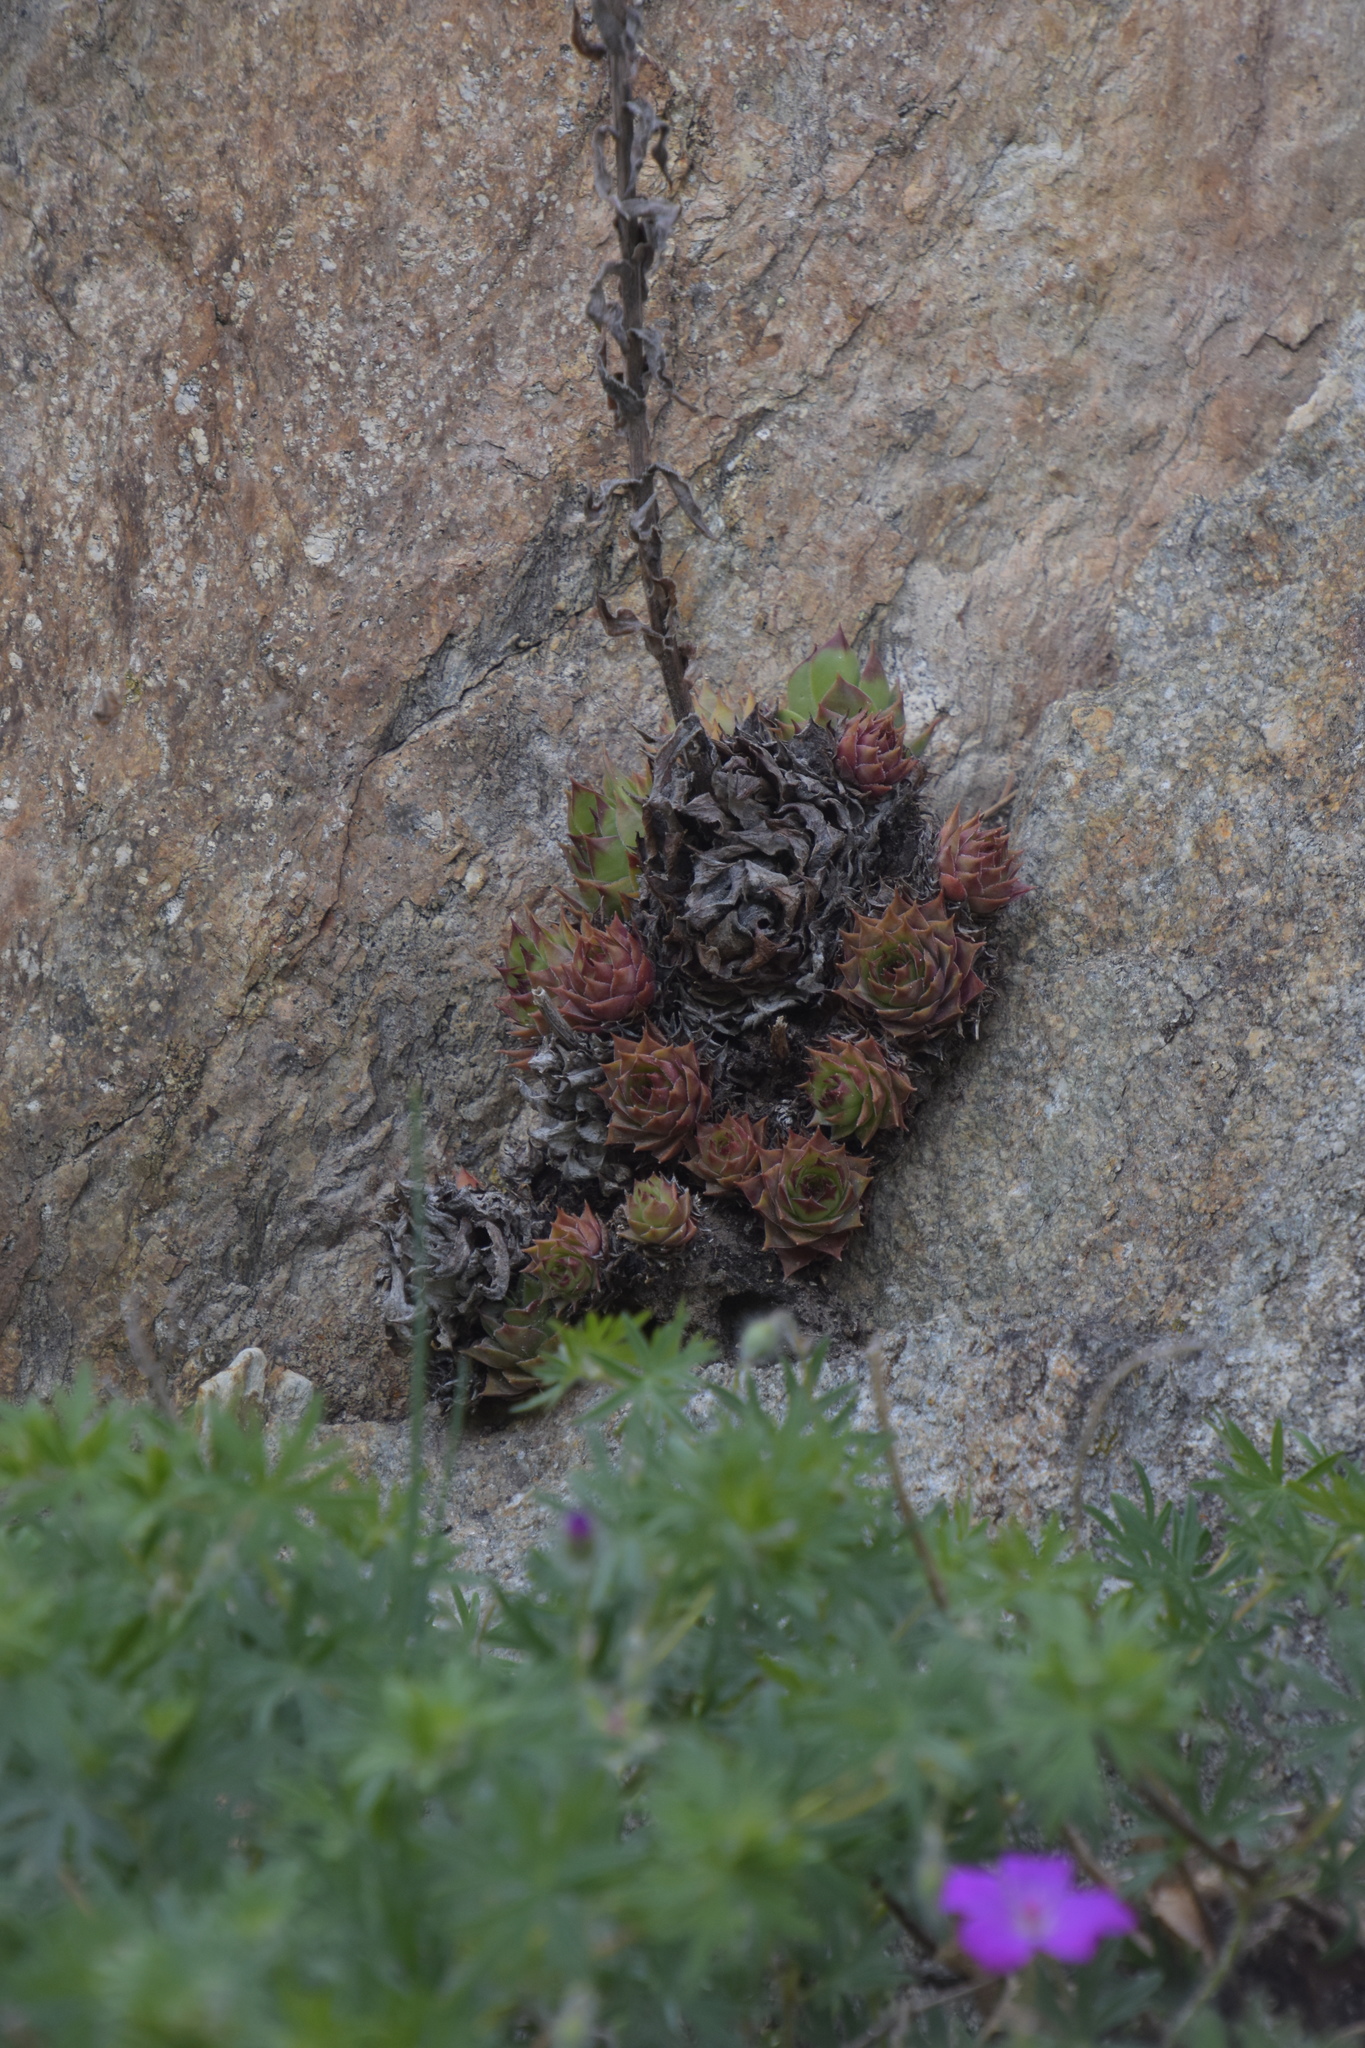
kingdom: Plantae
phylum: Tracheophyta
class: Magnoliopsida
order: Saxifragales
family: Crassulaceae
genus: Sempervivum
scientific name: Sempervivum tectorum
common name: House-leek
